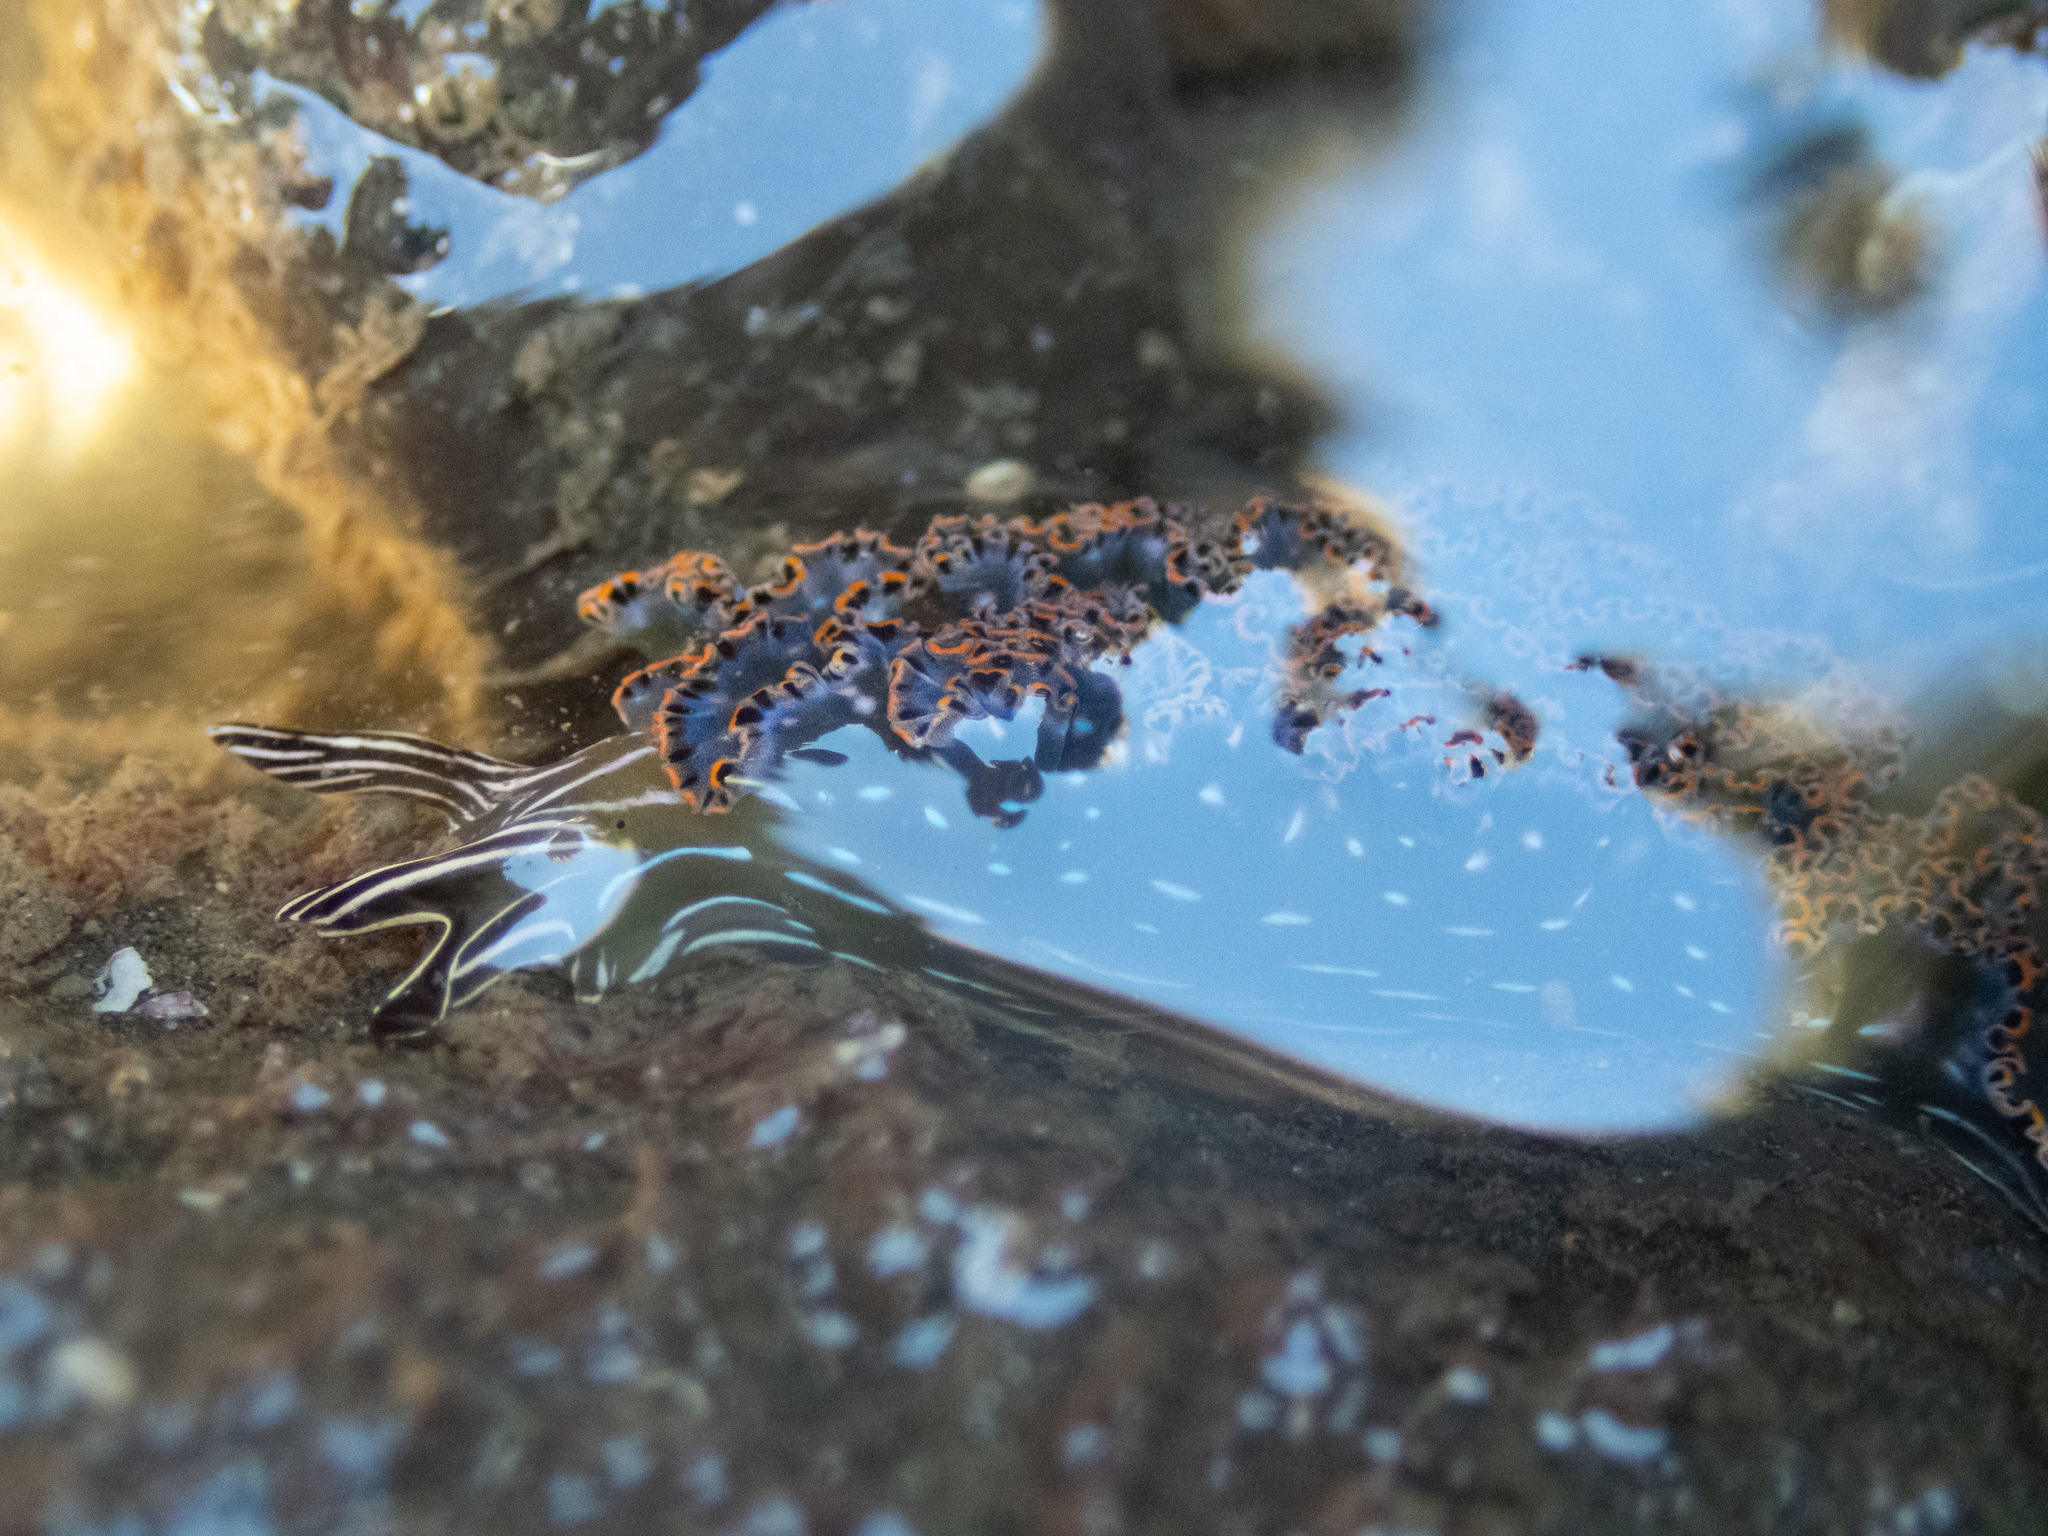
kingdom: Animalia
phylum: Mollusca
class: Gastropoda
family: Plakobranchidae
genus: Elysia
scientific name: Elysia diomedea
